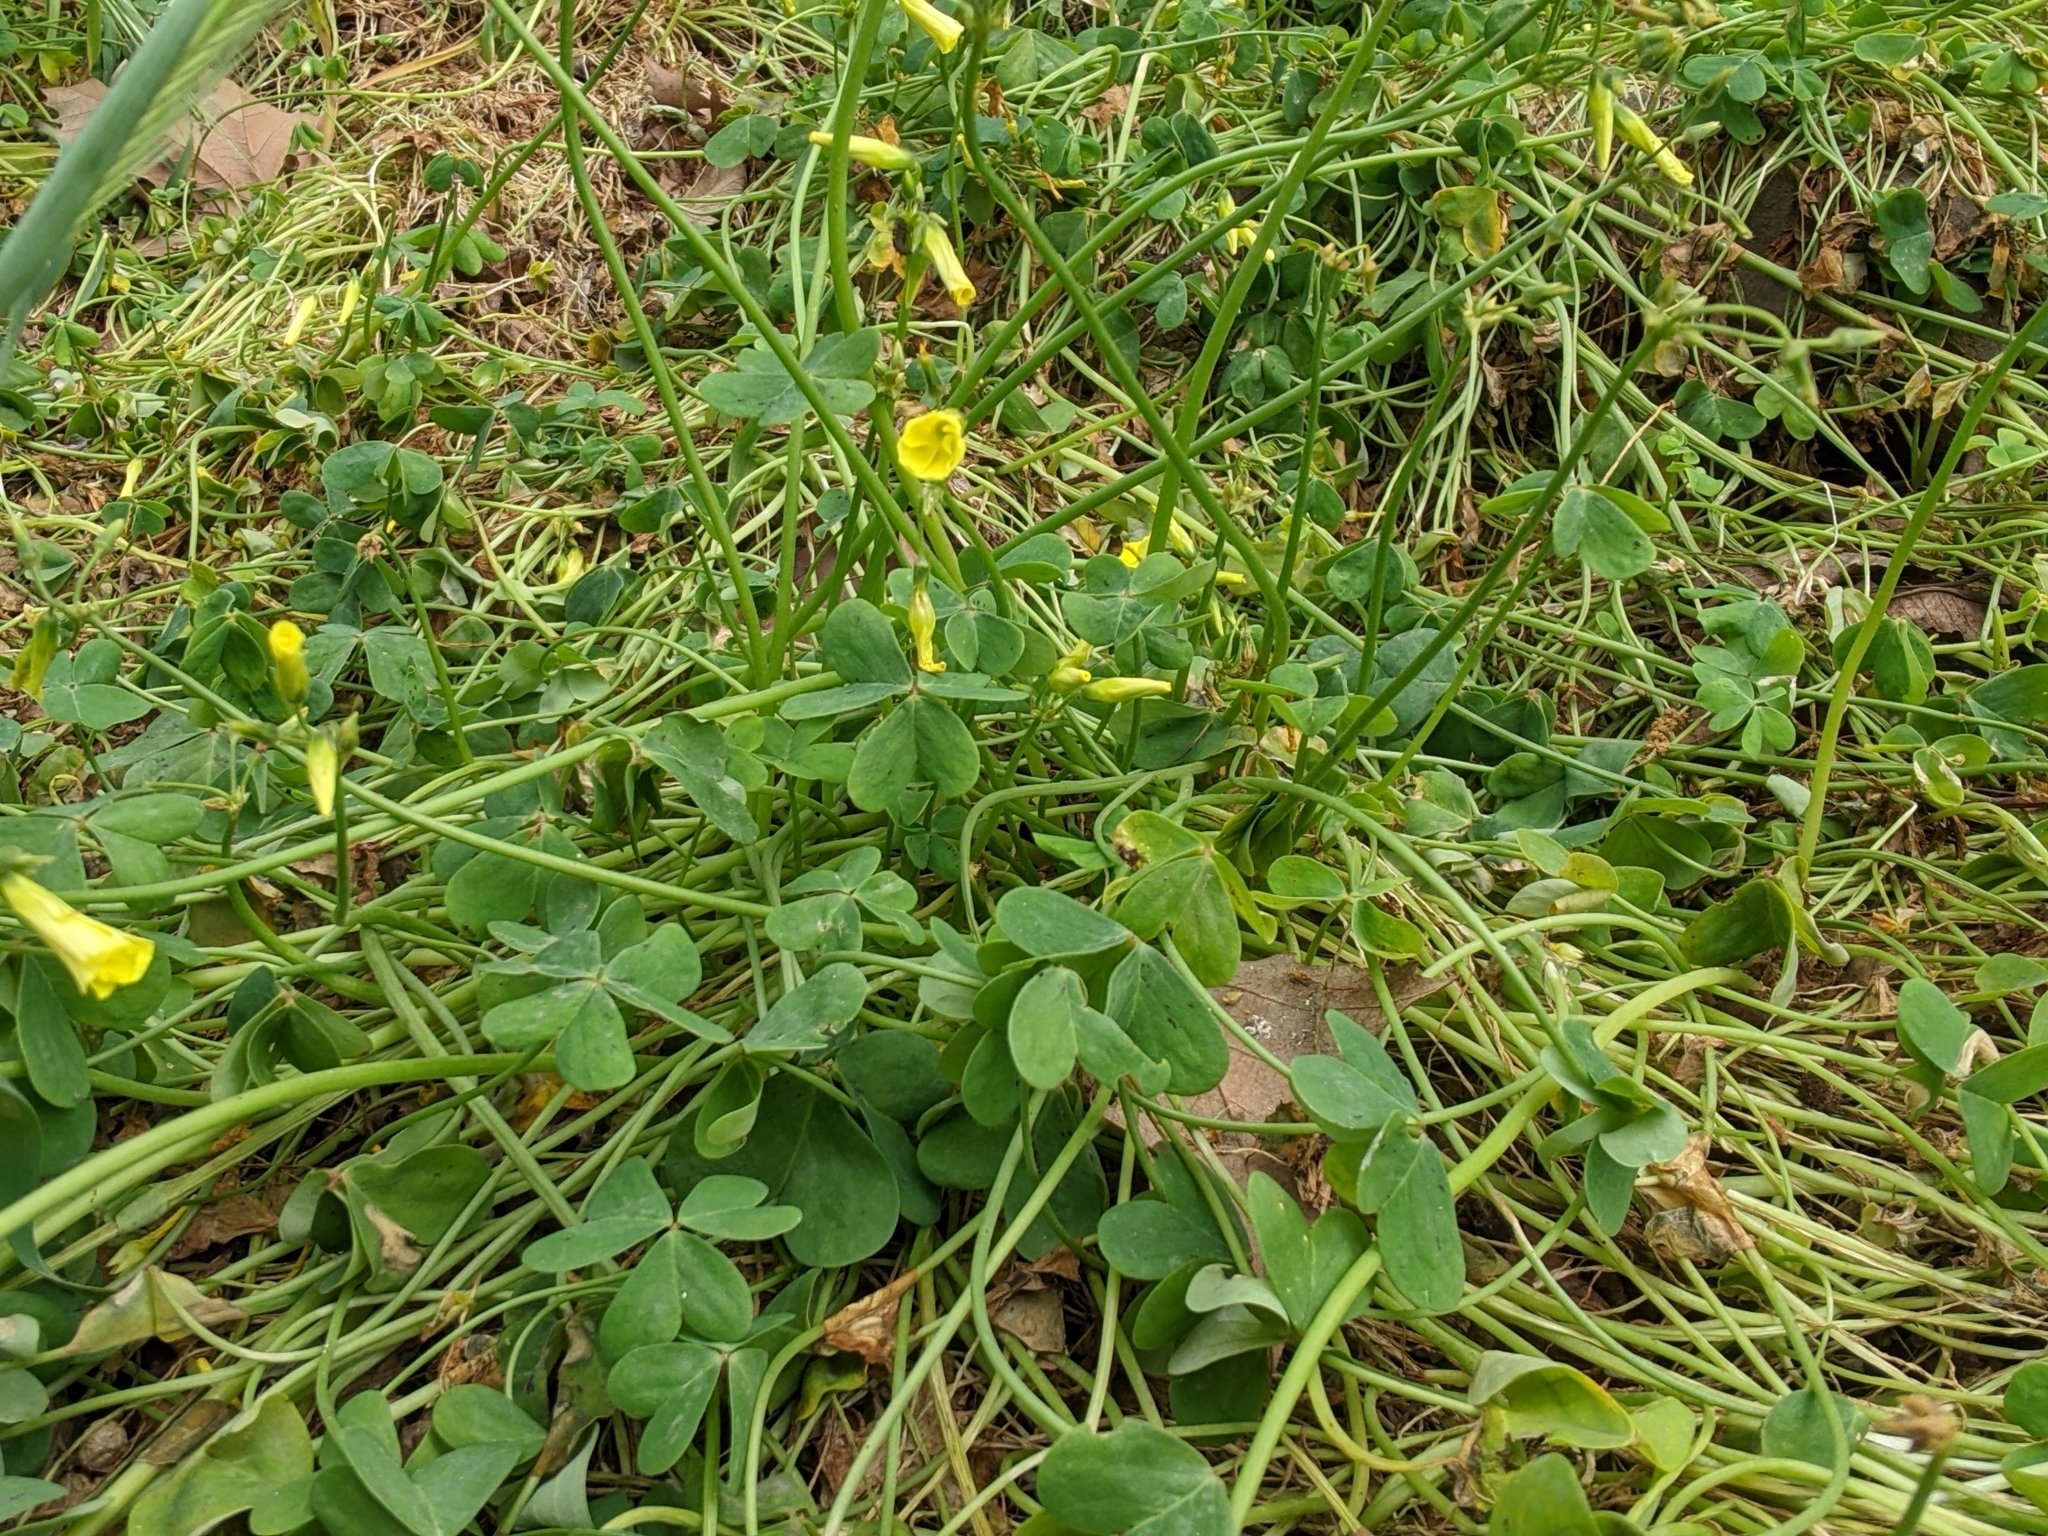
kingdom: Plantae
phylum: Tracheophyta
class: Magnoliopsida
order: Oxalidales
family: Oxalidaceae
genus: Oxalis
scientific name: Oxalis pes-caprae
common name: Bermuda-buttercup
